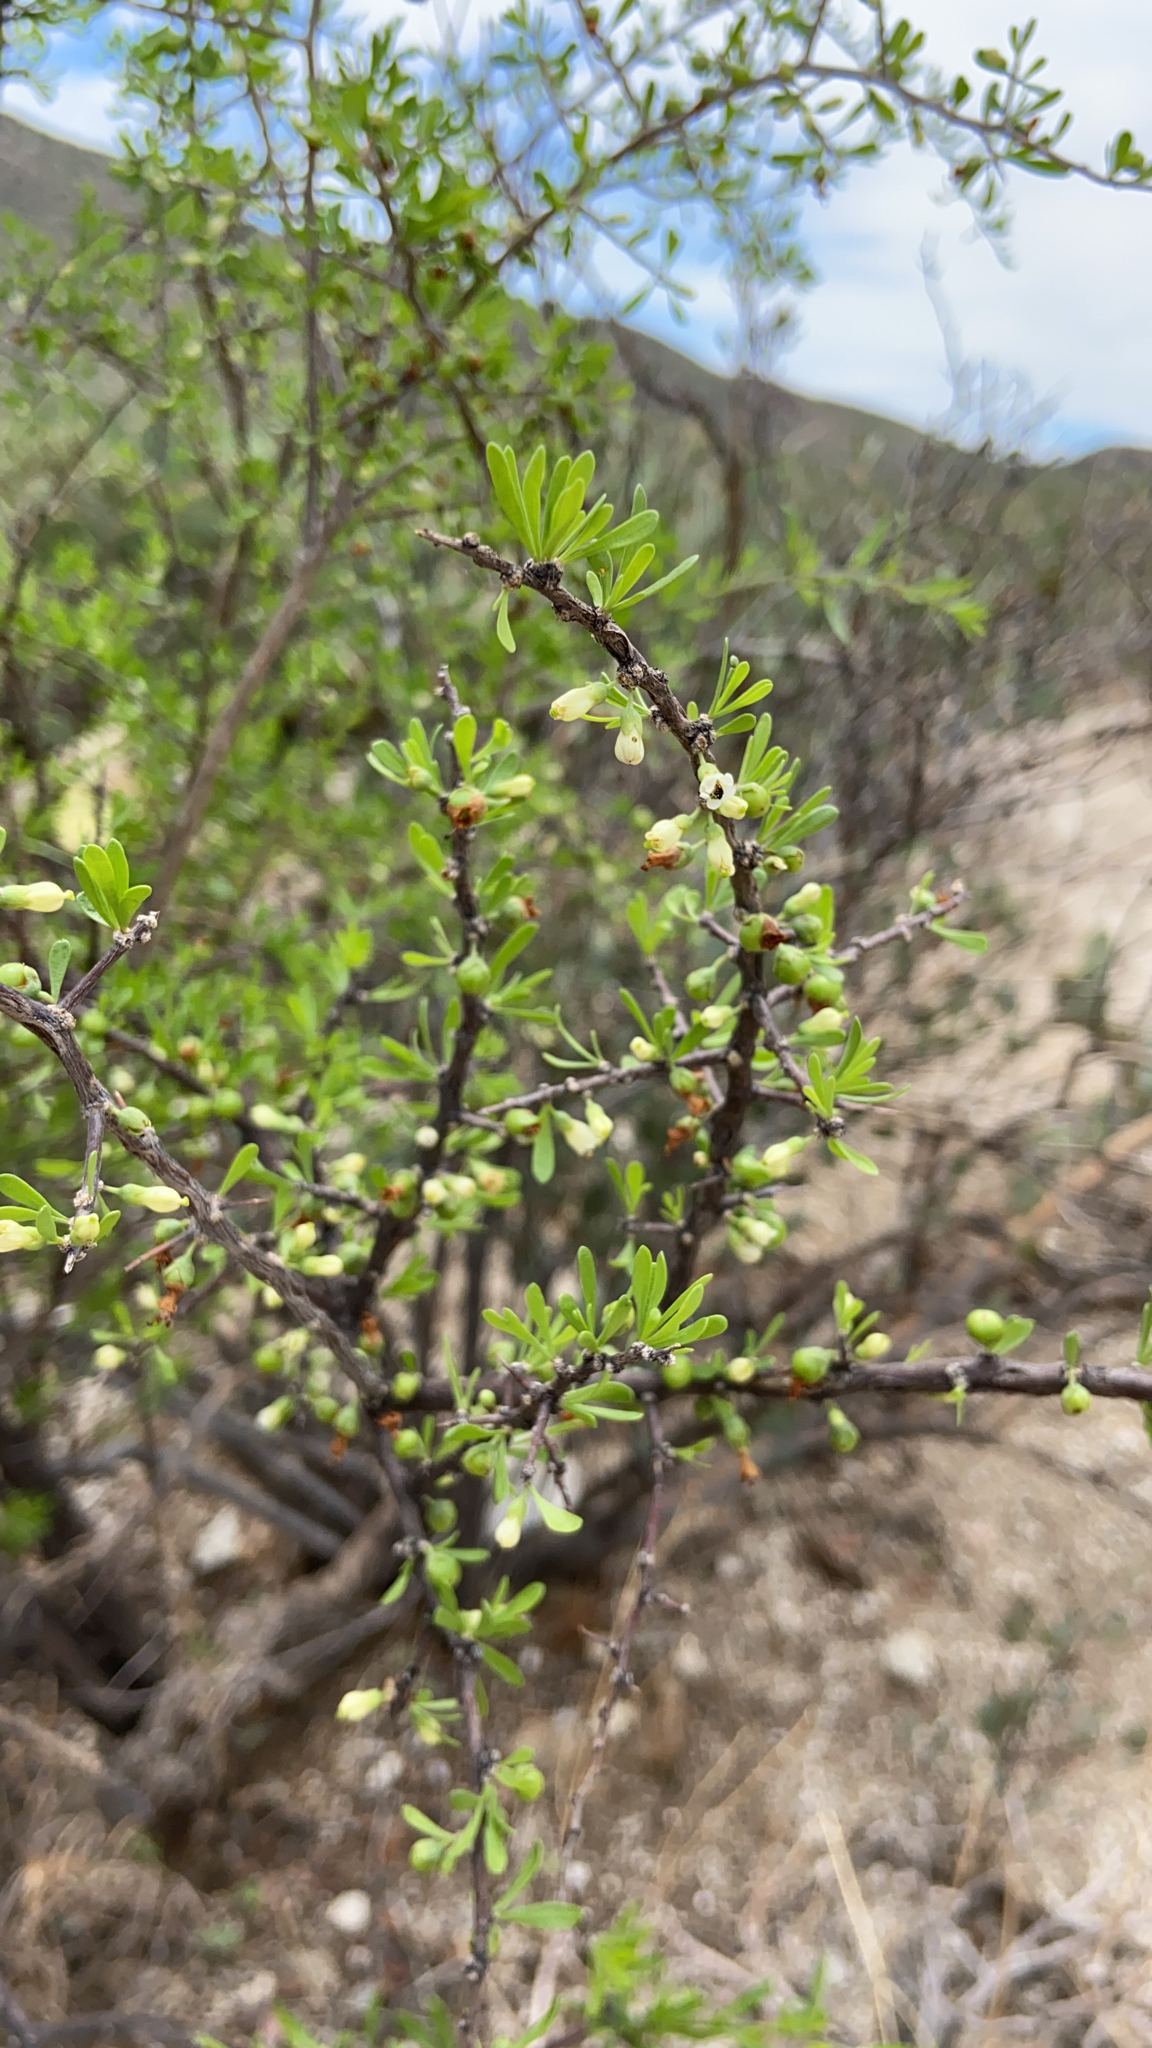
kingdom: Plantae
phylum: Tracheophyta
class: Magnoliopsida
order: Solanales
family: Solanaceae
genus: Lycium
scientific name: Lycium berlandieri
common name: Berlandier wolfberry
